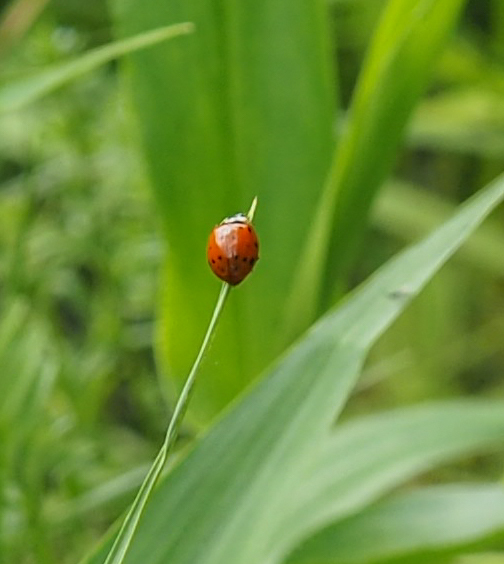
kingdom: Animalia
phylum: Arthropoda
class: Insecta
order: Coleoptera
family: Coccinellidae
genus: Harmonia
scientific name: Harmonia axyridis
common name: Harlequin ladybird
